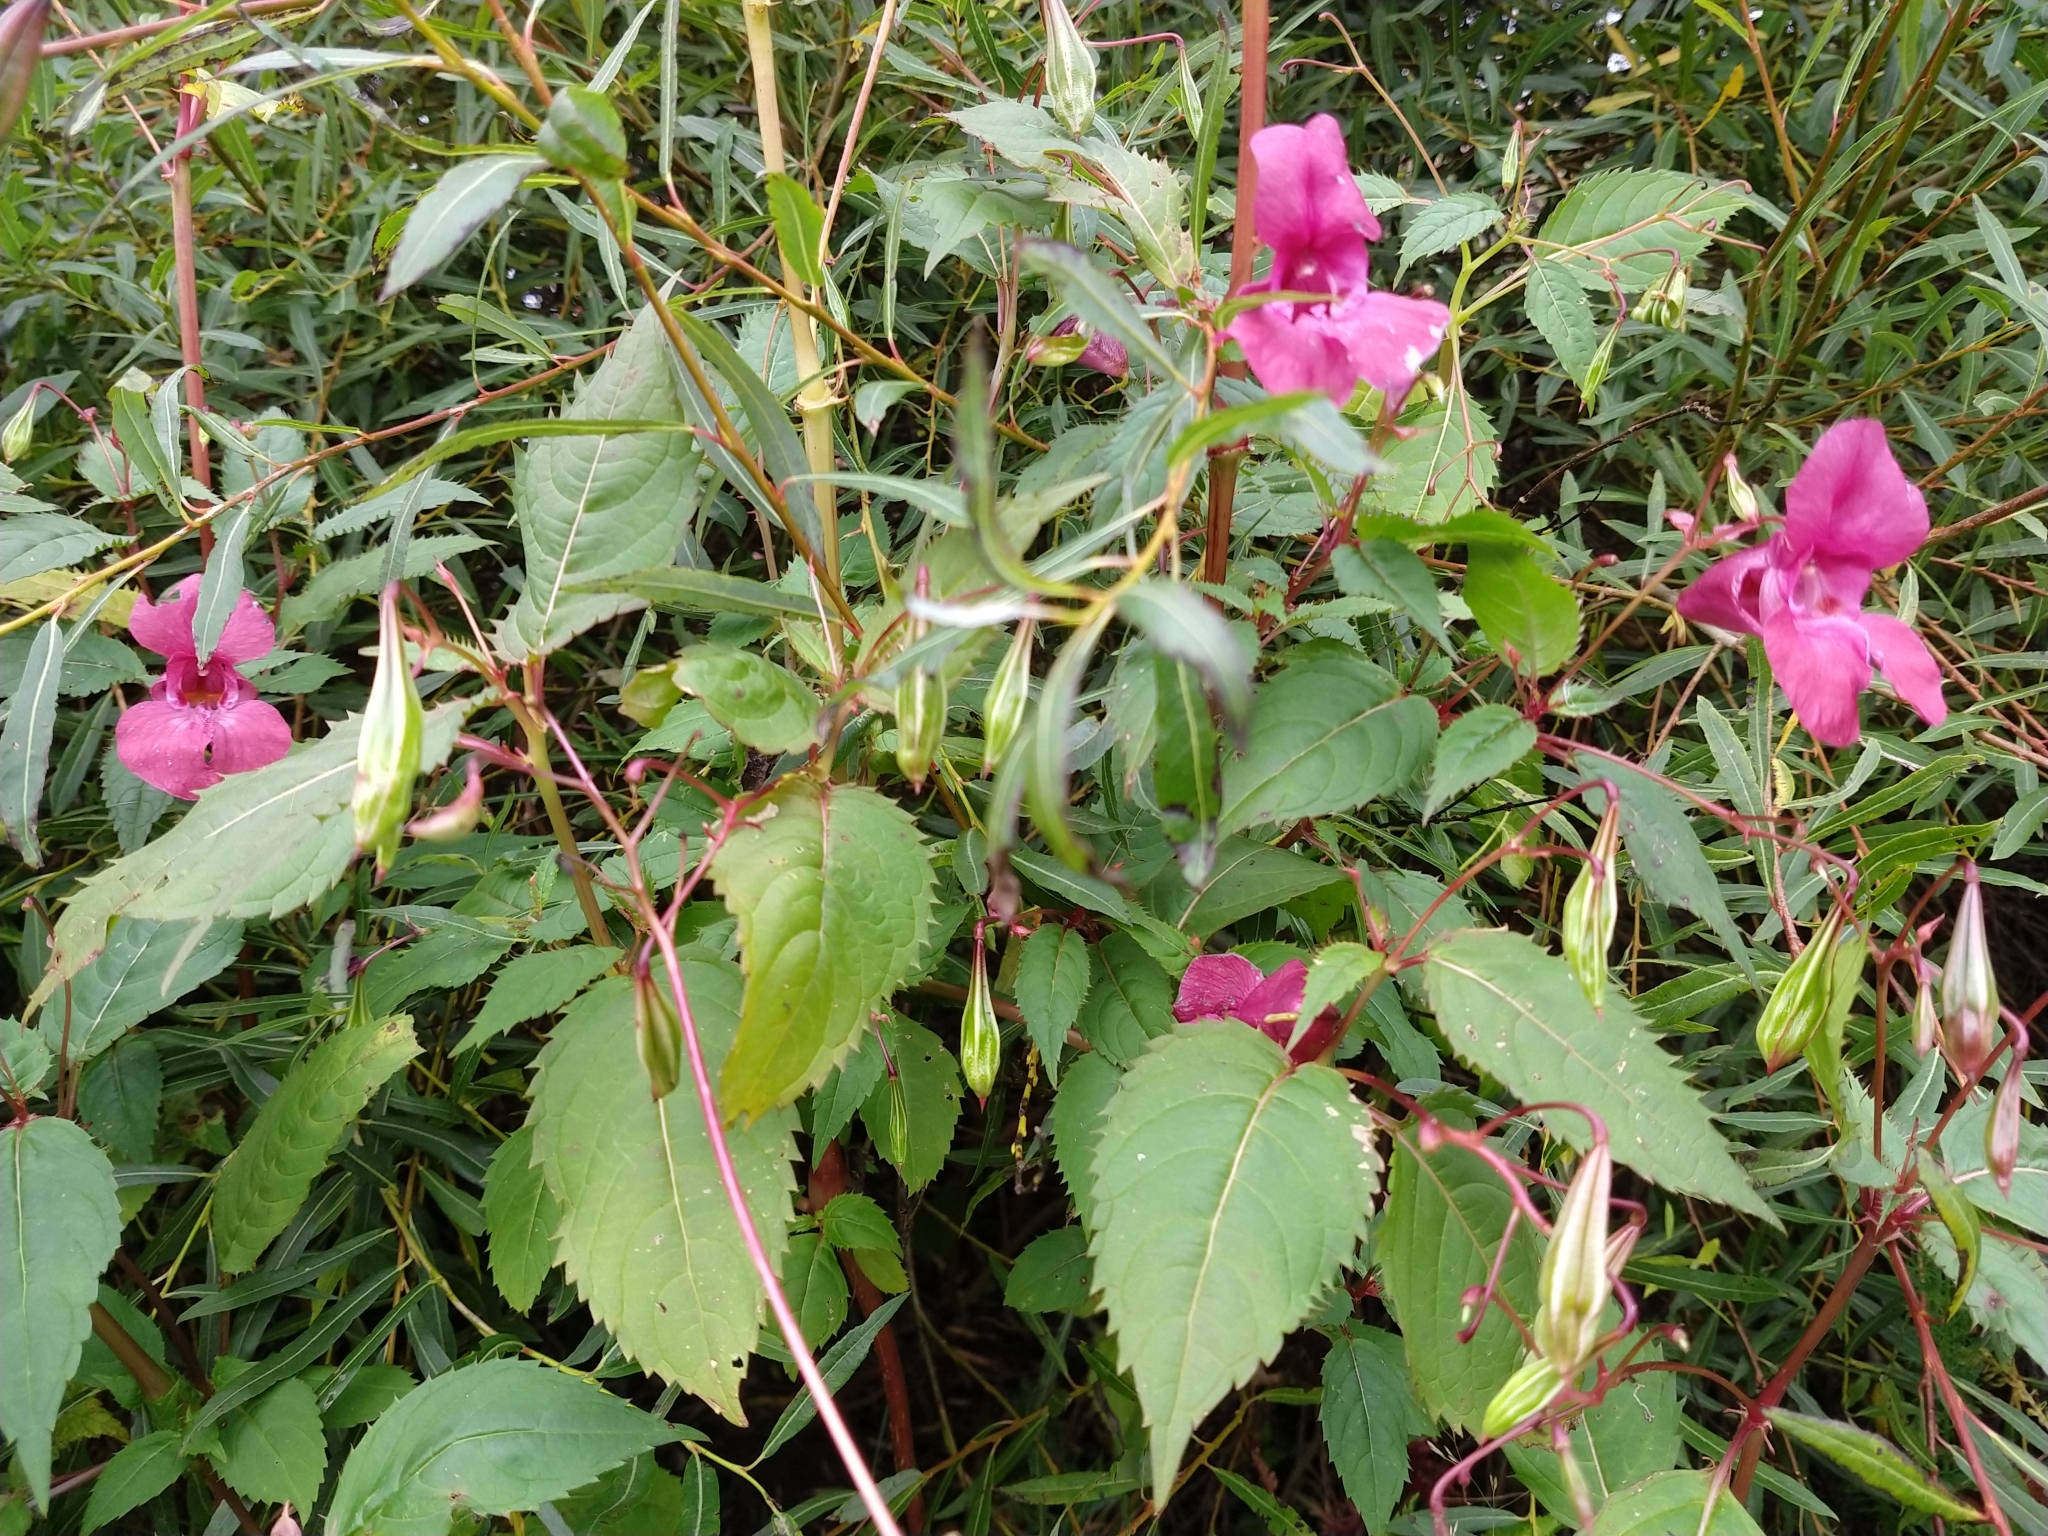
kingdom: Plantae
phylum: Tracheophyta
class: Magnoliopsida
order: Ericales
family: Balsaminaceae
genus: Impatiens
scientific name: Impatiens glandulifera
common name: Himalayan balsam
